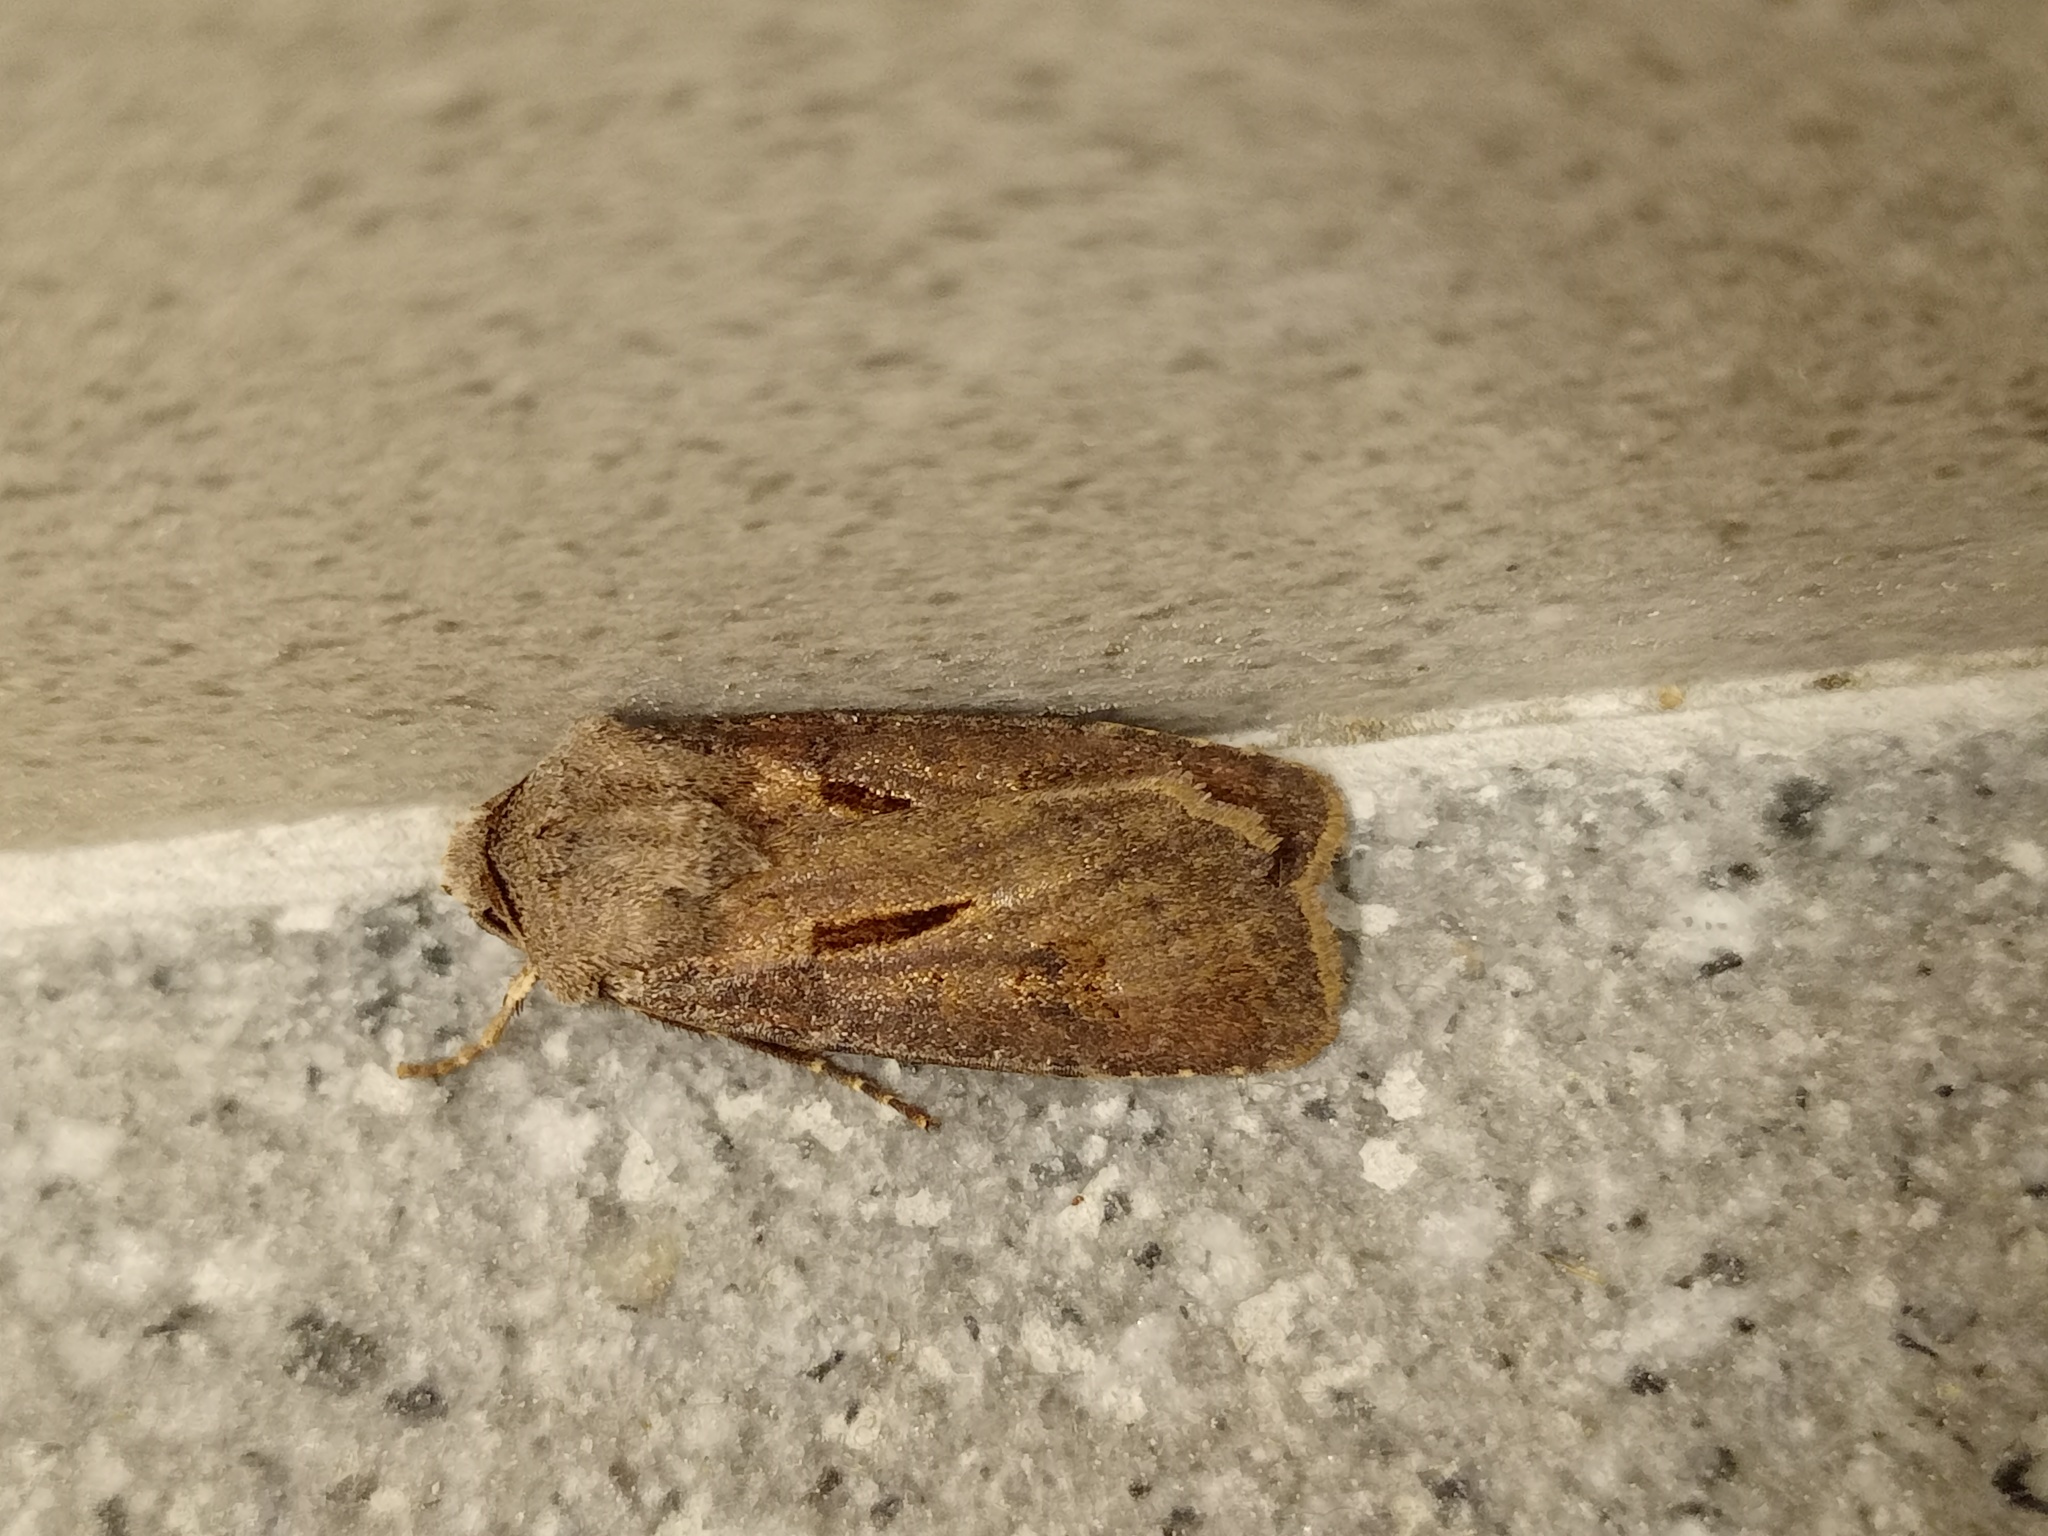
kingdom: Animalia
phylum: Arthropoda
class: Insecta
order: Lepidoptera
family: Noctuidae
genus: Agrotis
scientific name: Agrotis exclamationis
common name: Heart and dart
